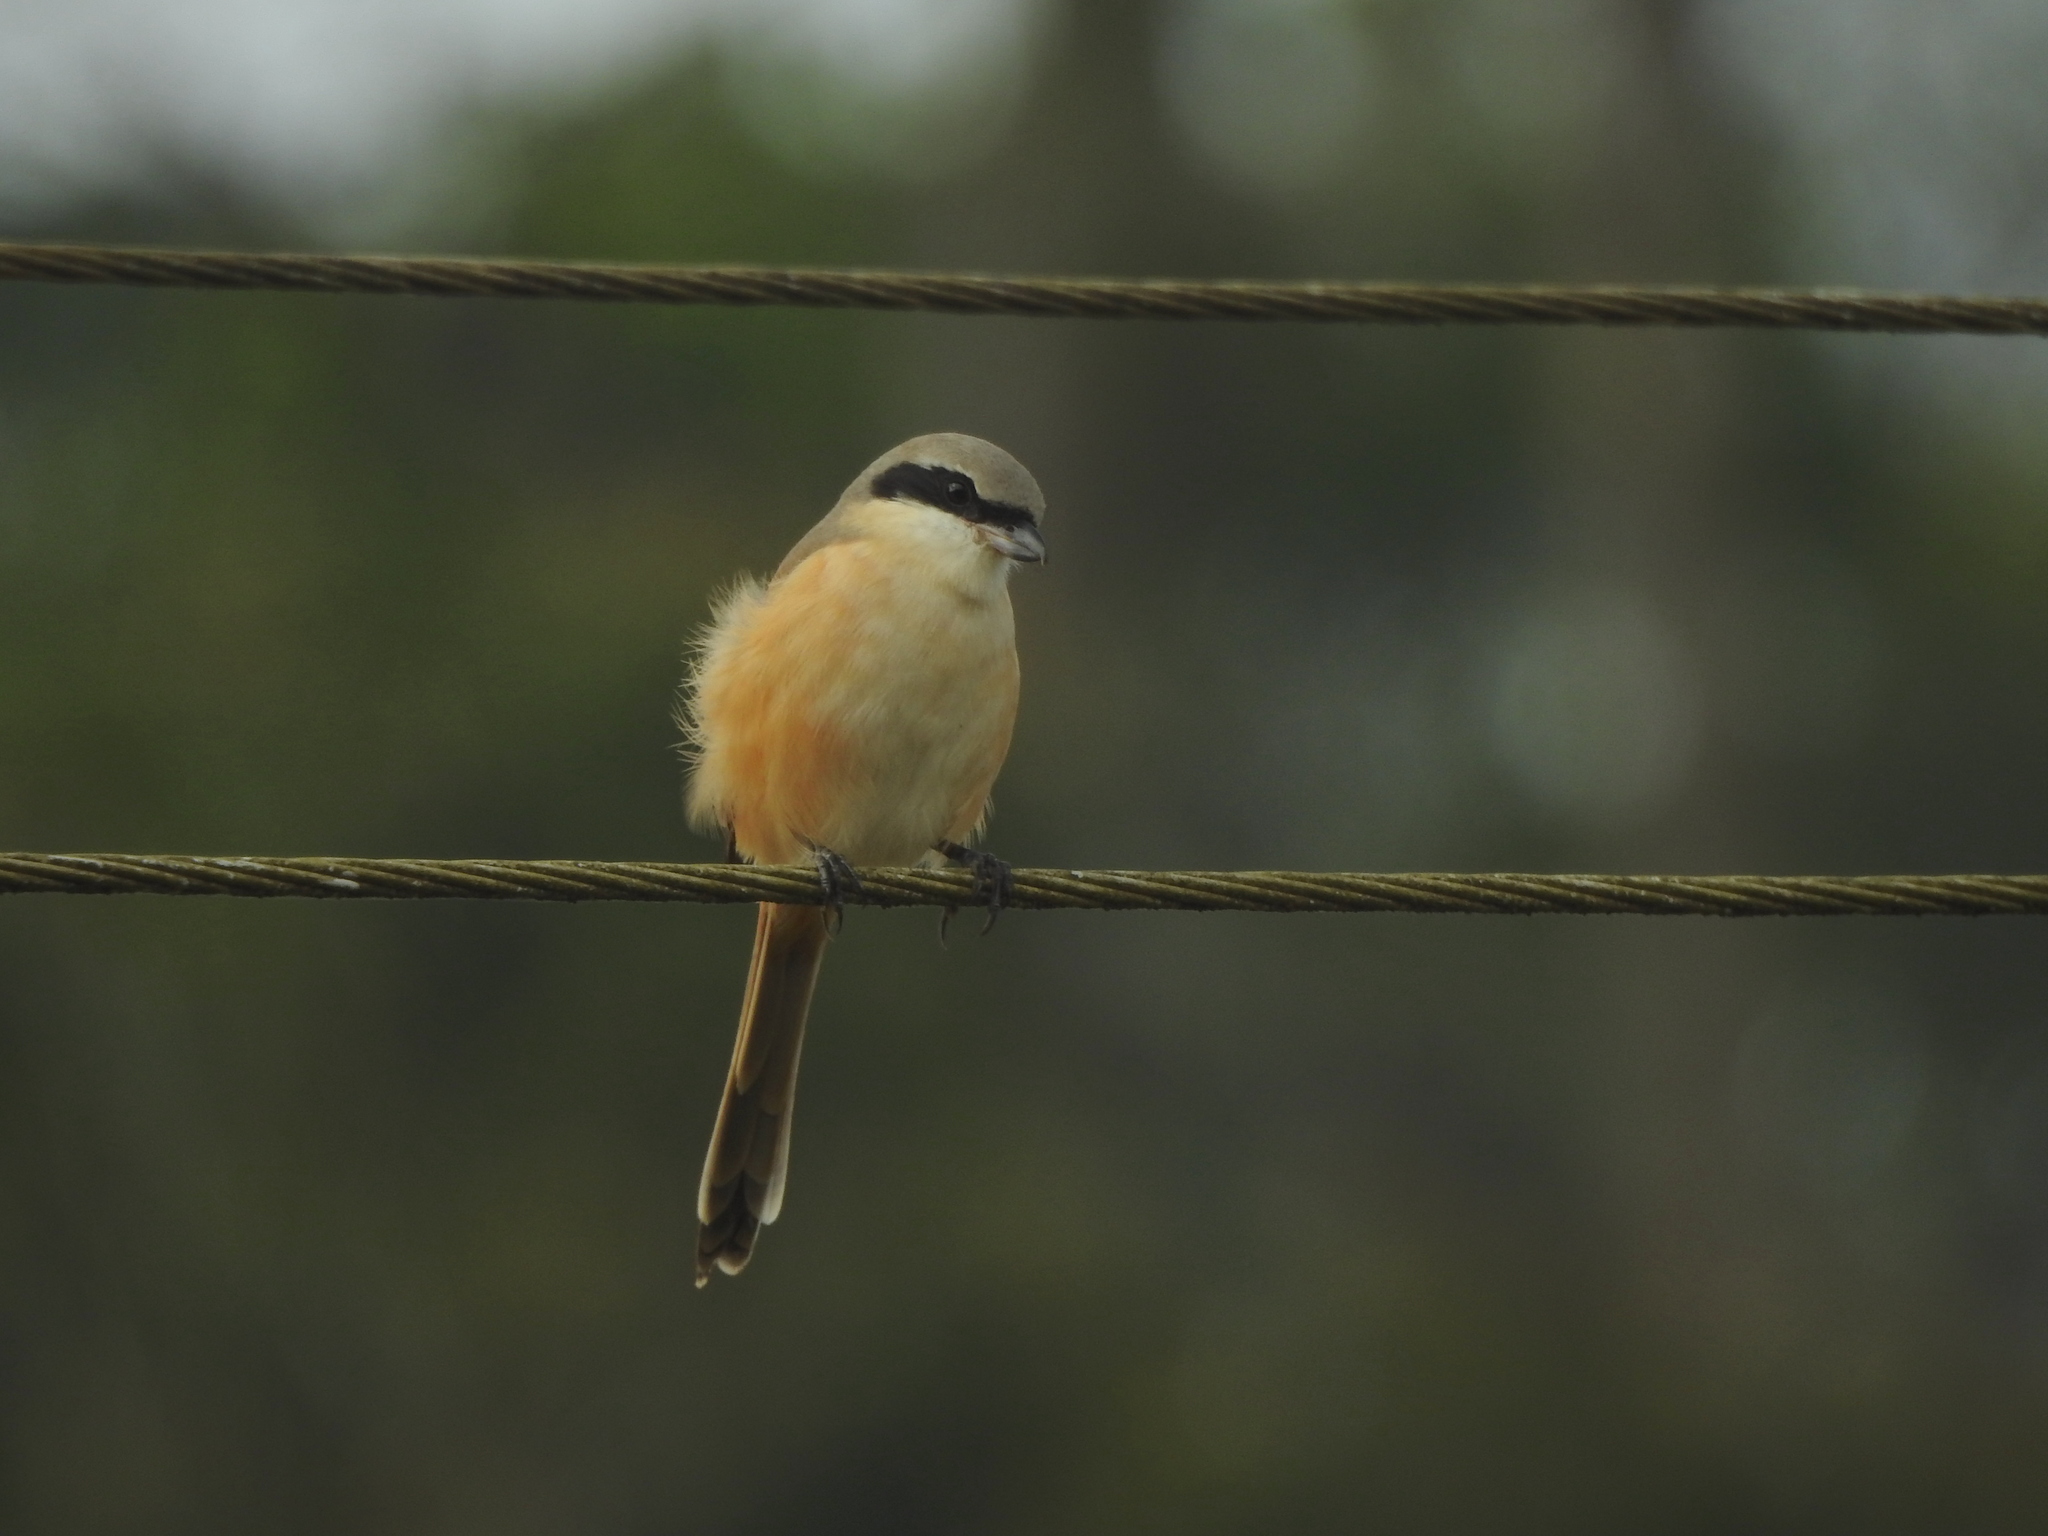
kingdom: Animalia
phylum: Chordata
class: Aves
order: Passeriformes
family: Laniidae
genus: Lanius
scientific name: Lanius schach
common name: Long-tailed shrike
